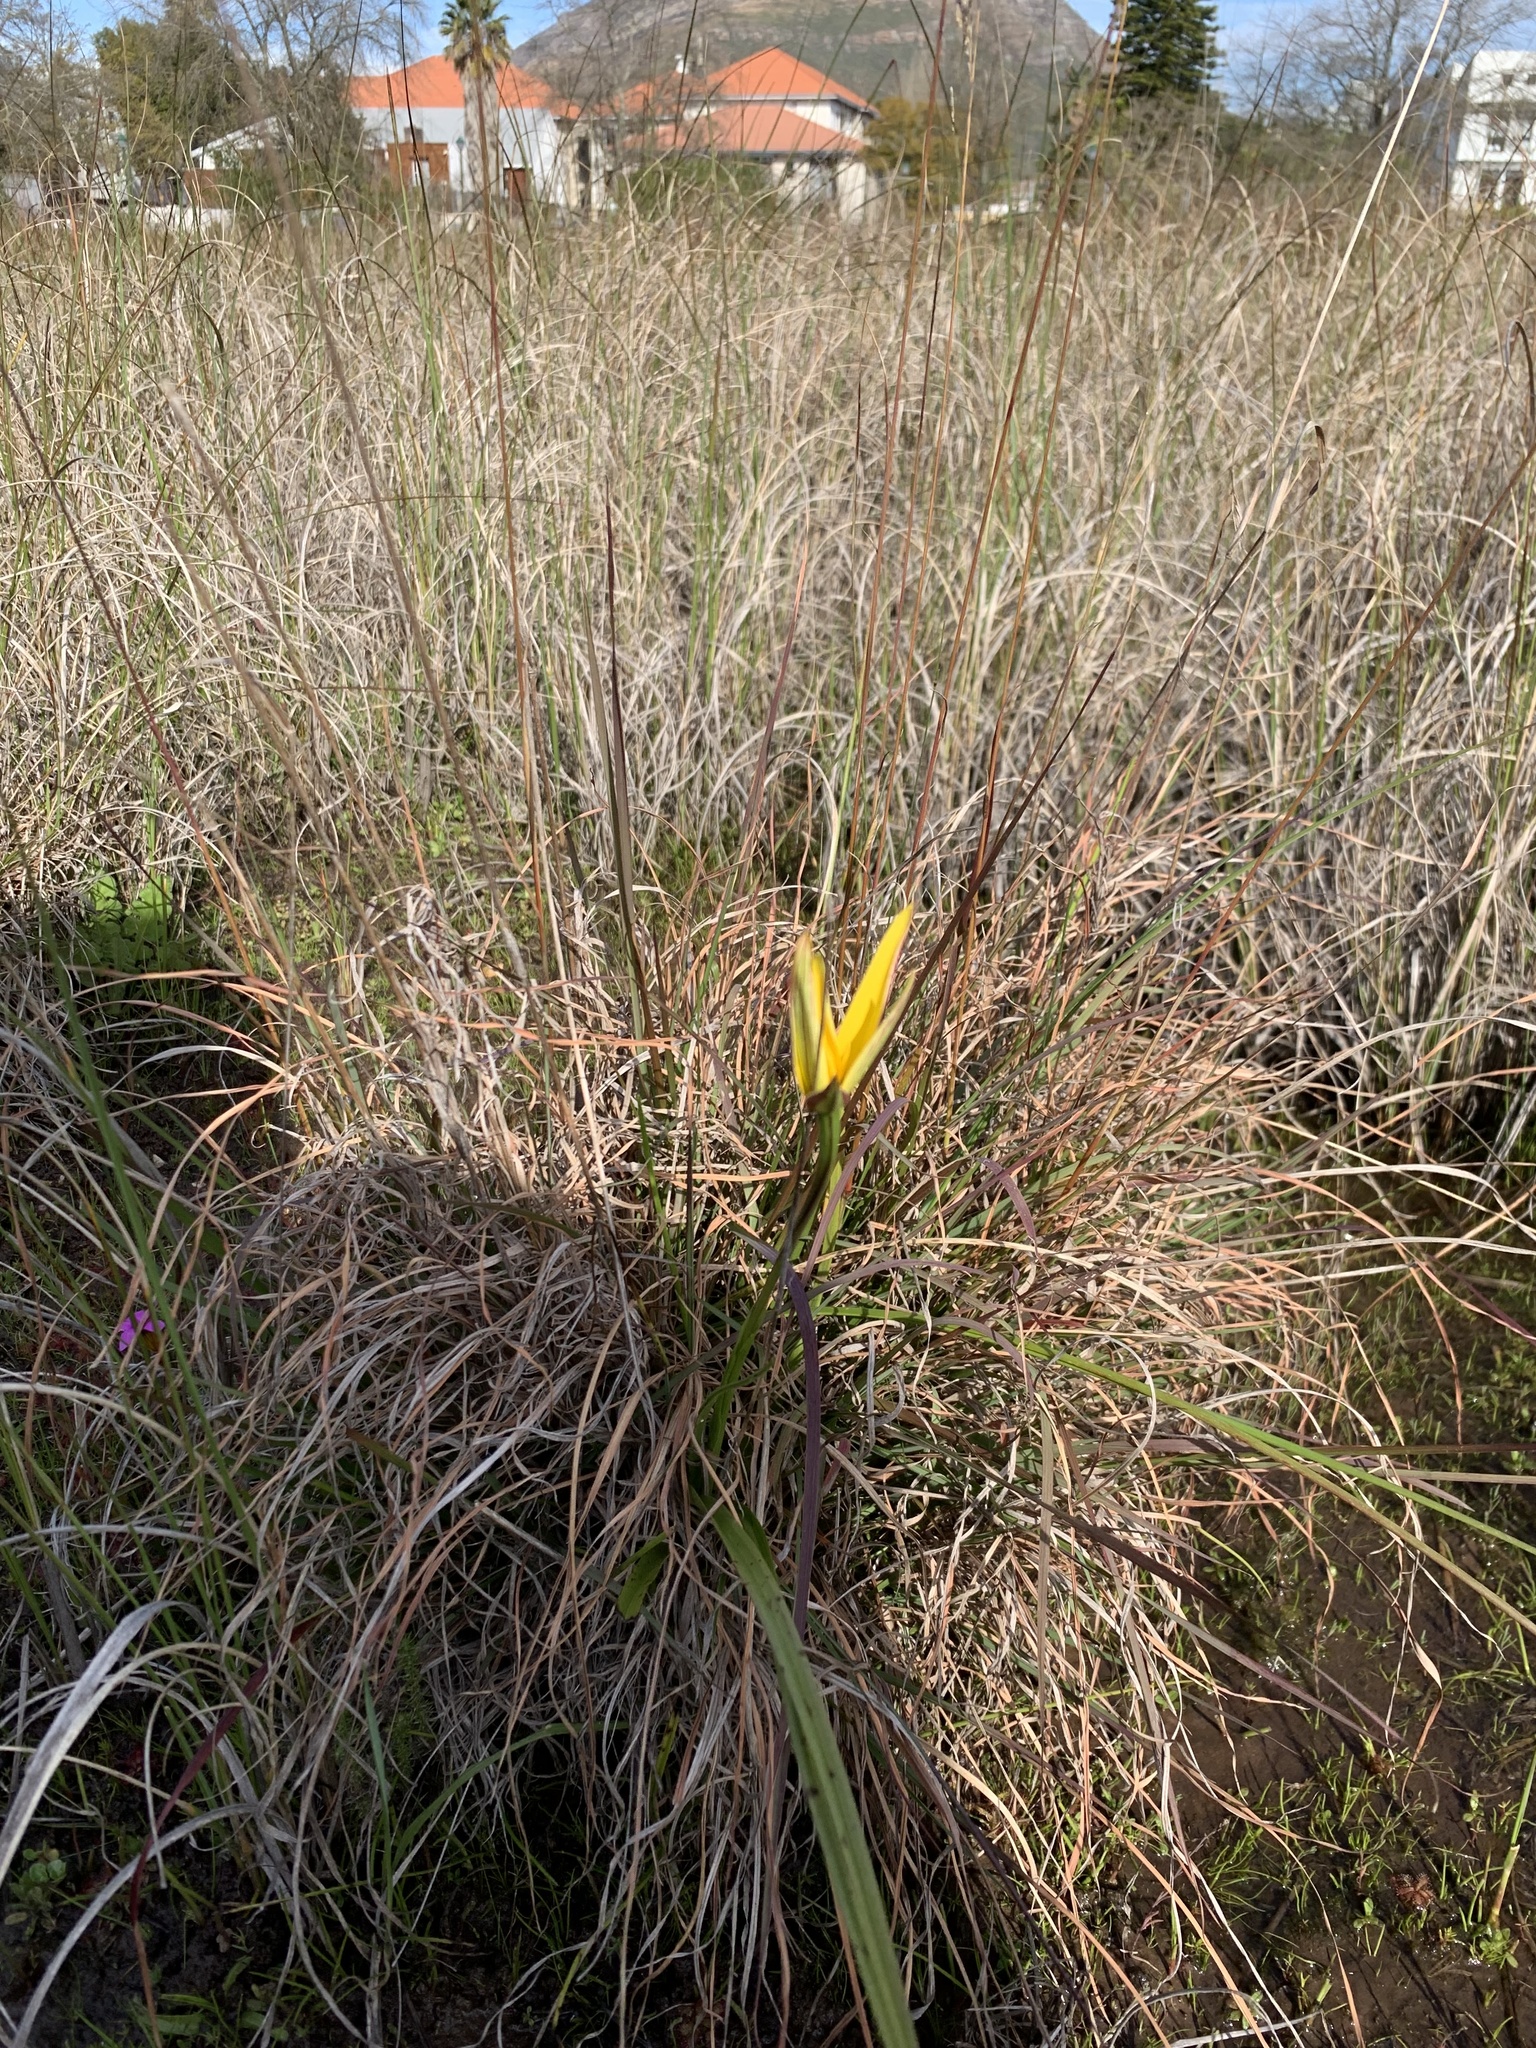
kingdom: Plantae
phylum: Tracheophyta
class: Liliopsida
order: Asparagales
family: Hypoxidaceae
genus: Pauridia
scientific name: Pauridia capensis
